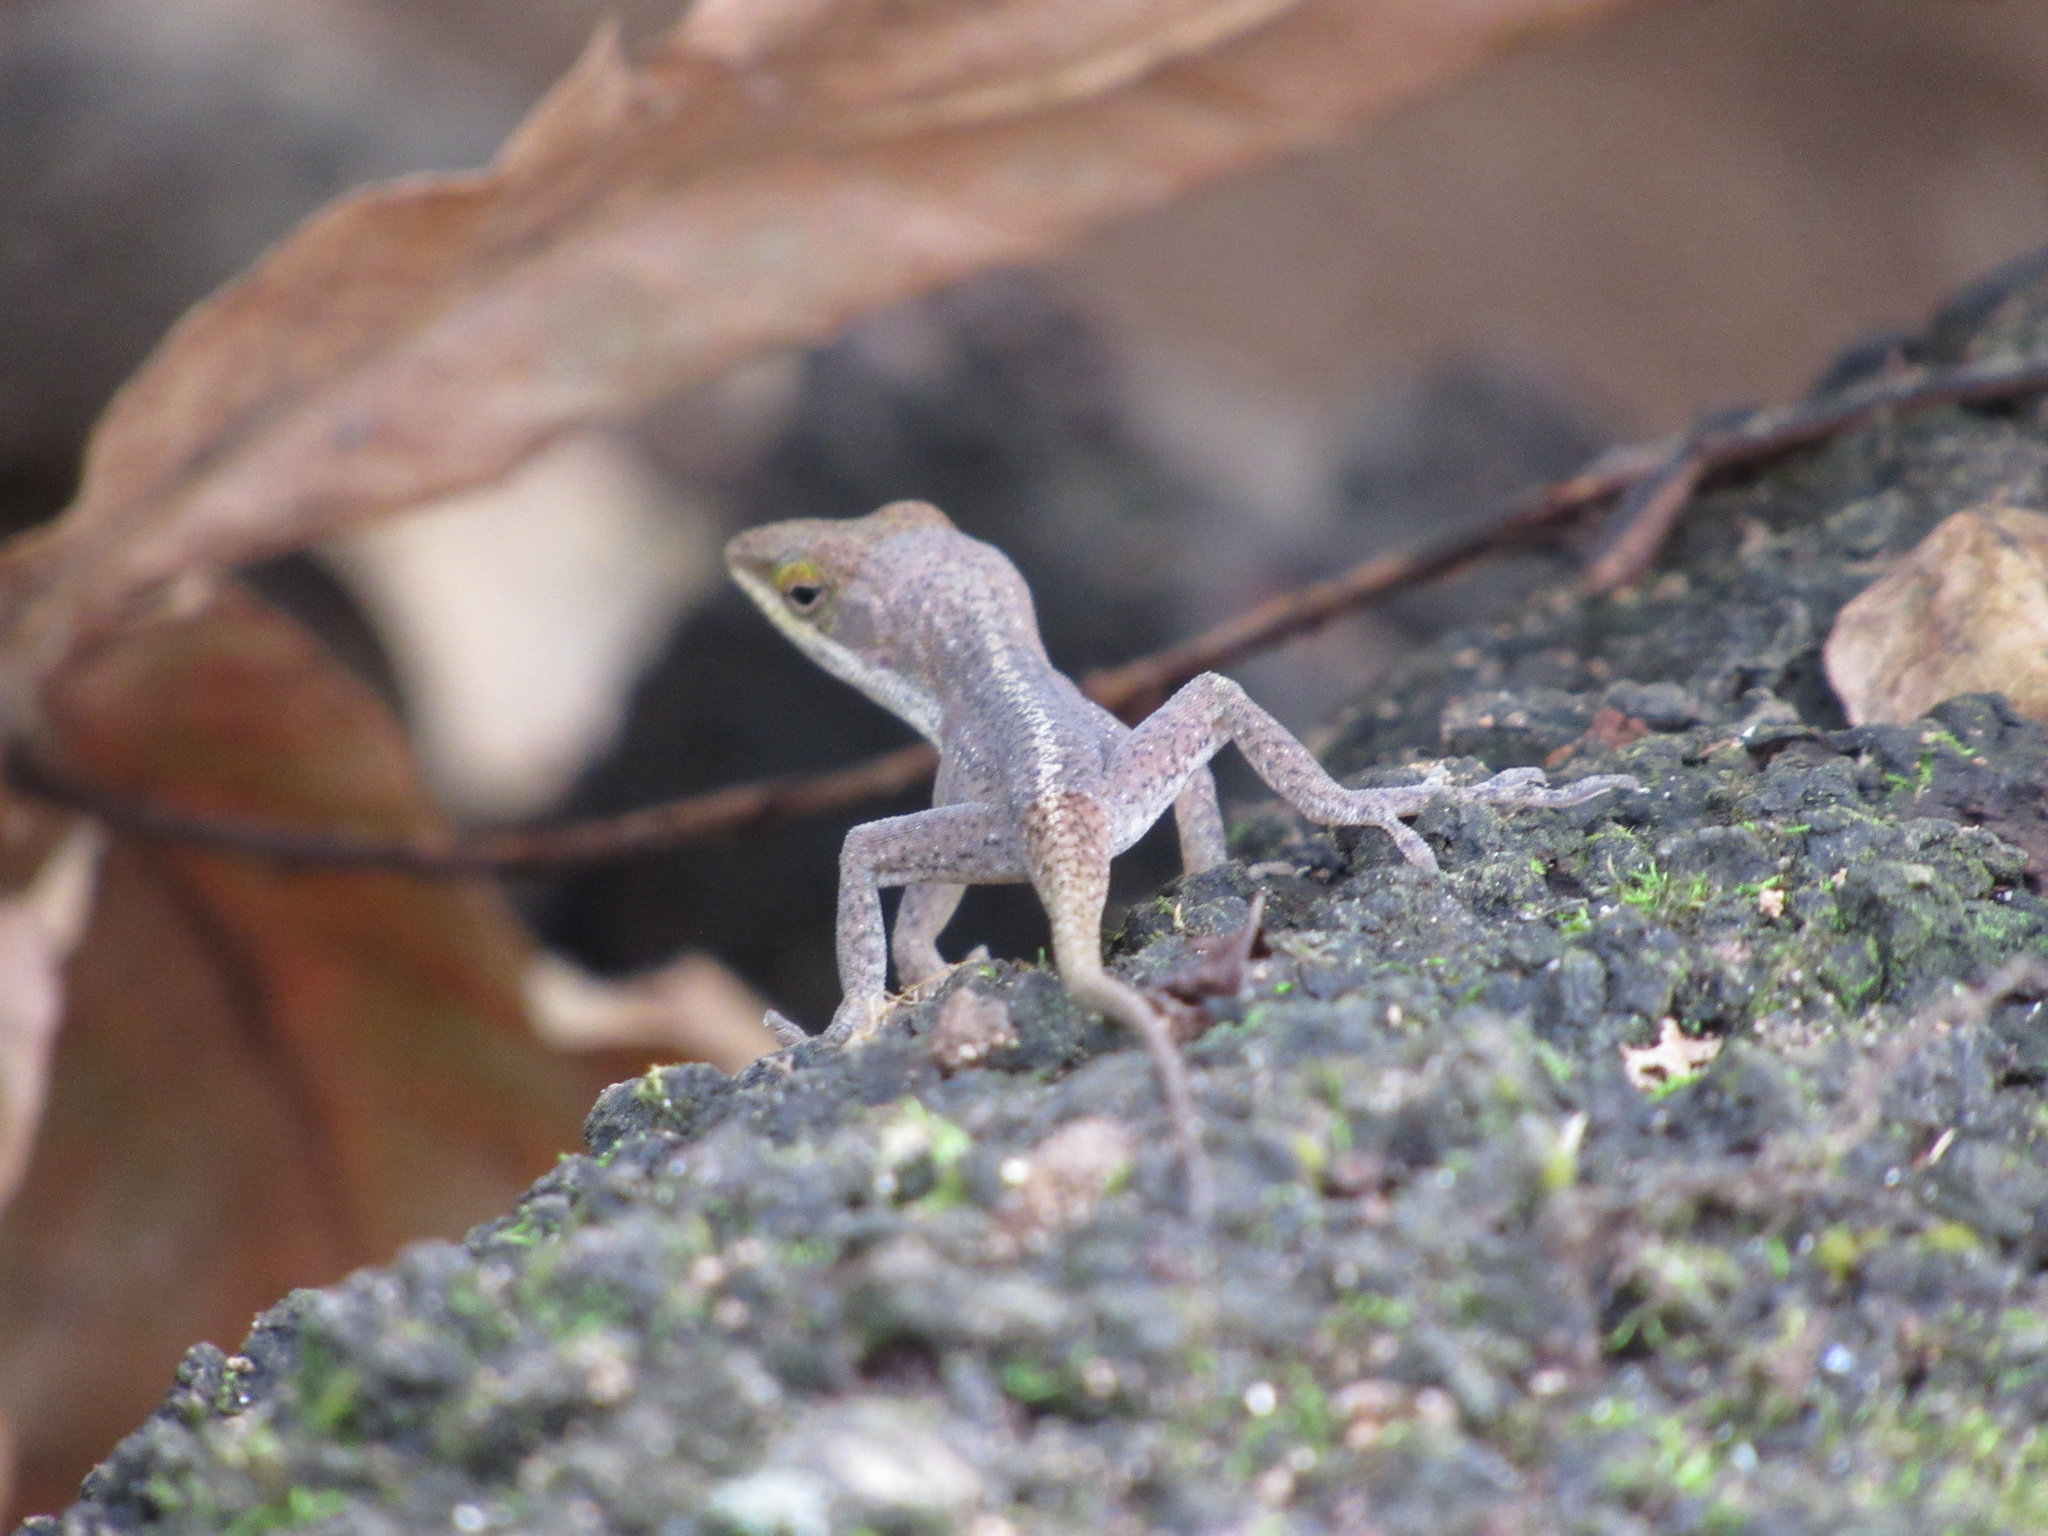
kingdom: Animalia
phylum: Chordata
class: Squamata
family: Dactyloidae
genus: Anolis
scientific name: Anolis carolinensis
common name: Green anole
